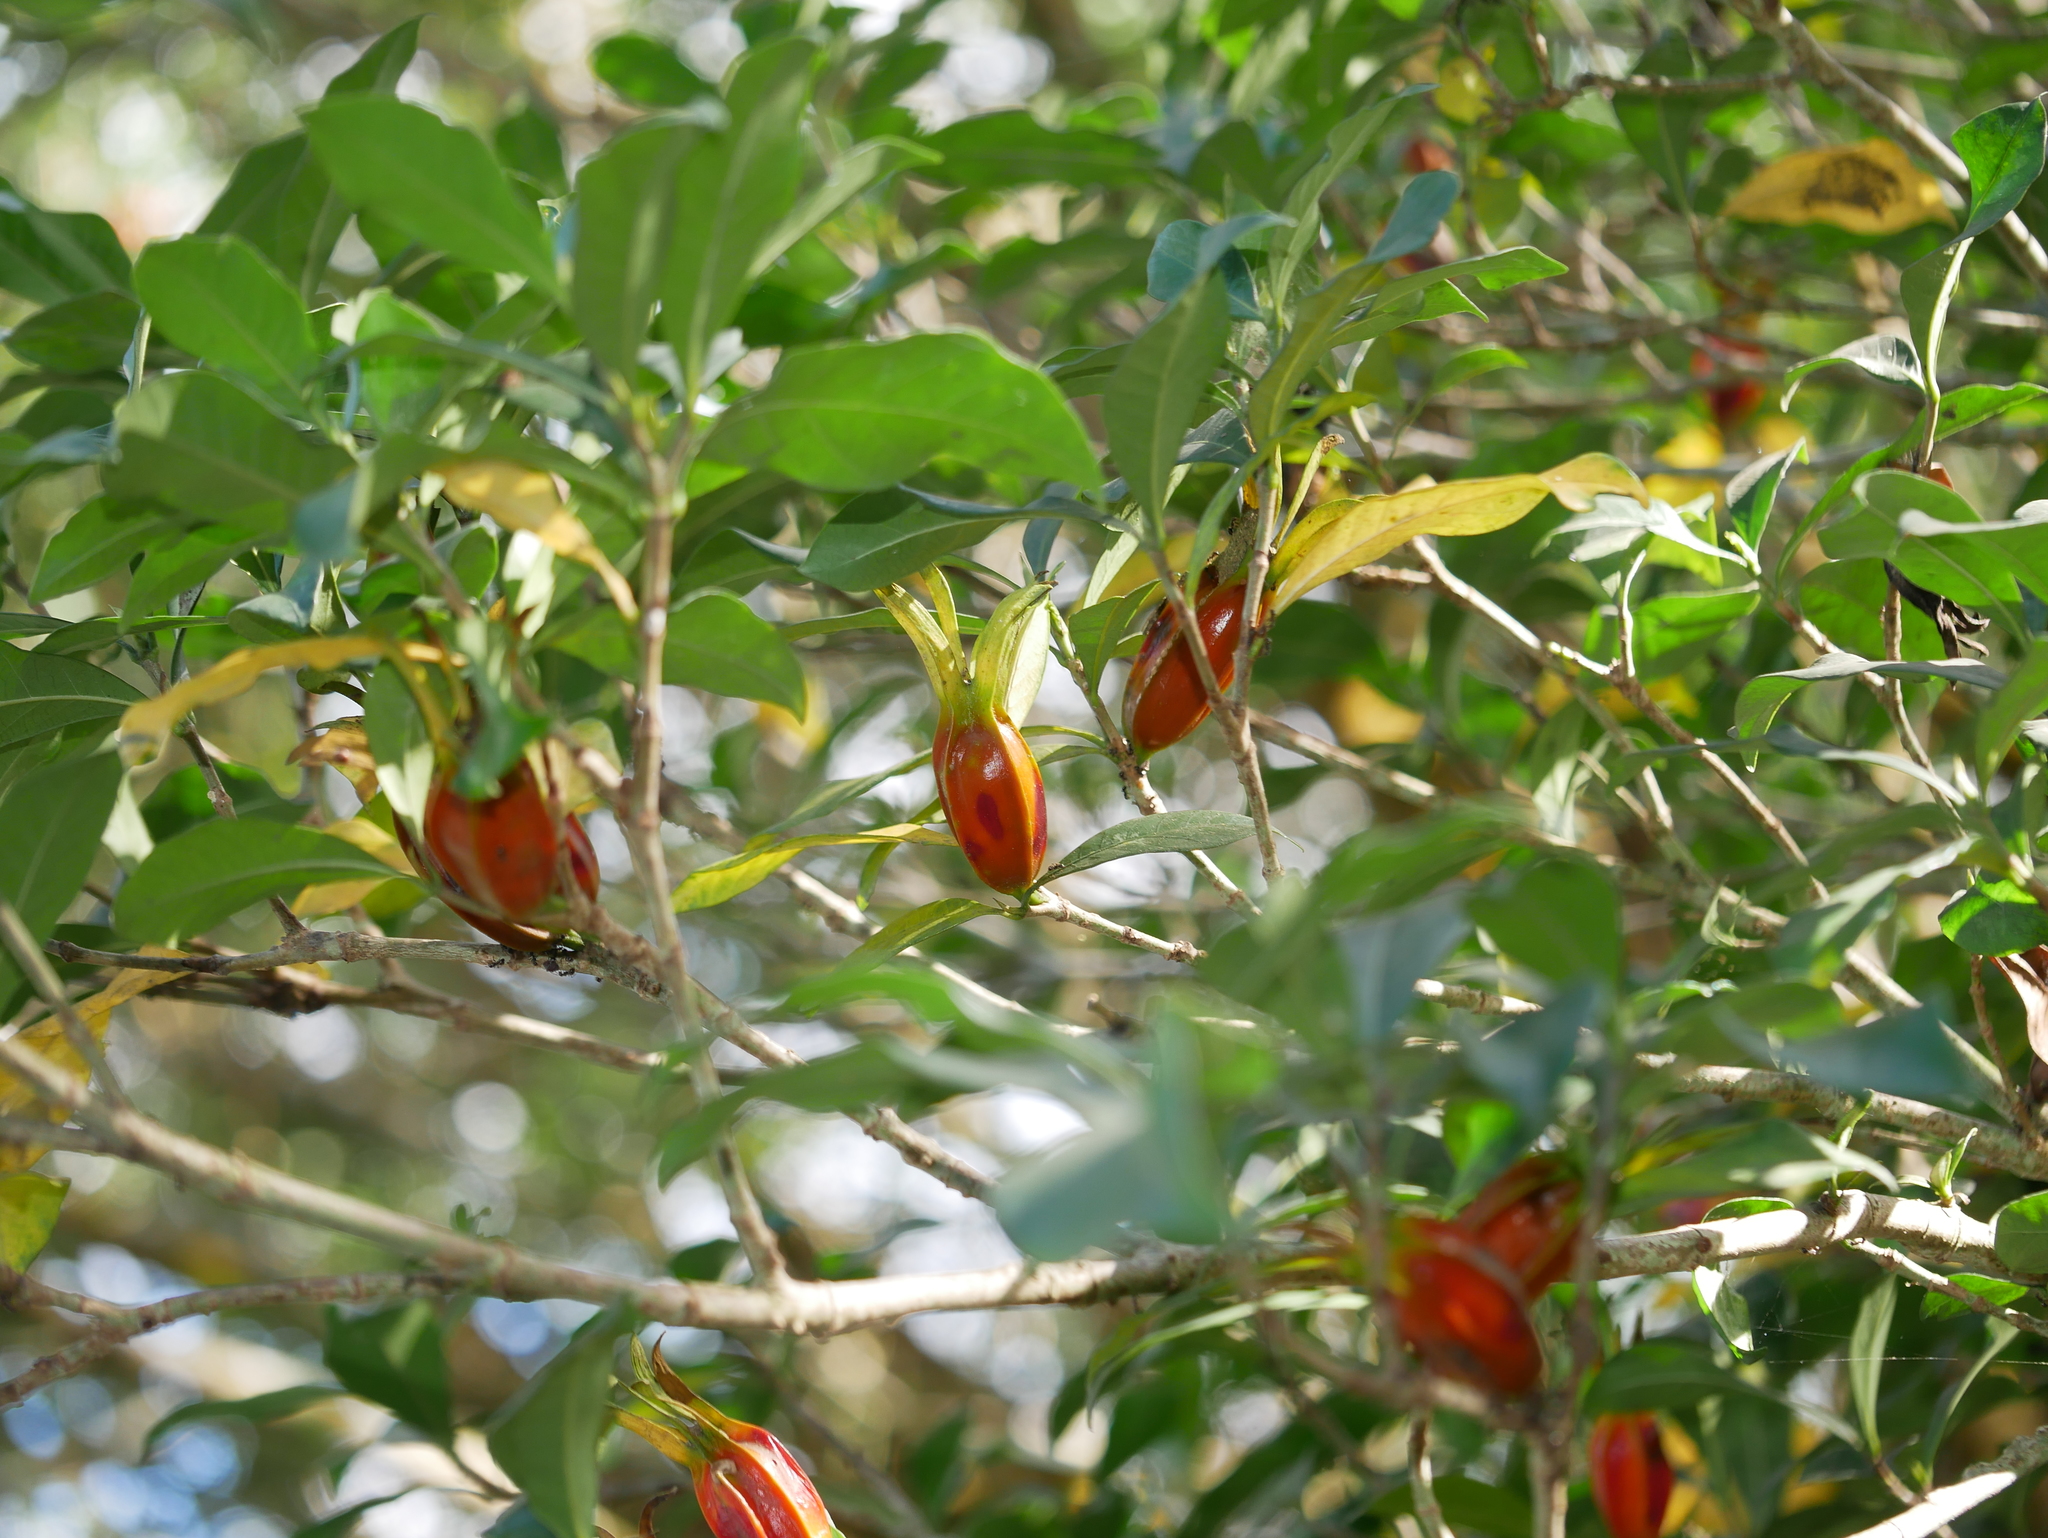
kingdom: Plantae
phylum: Tracheophyta
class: Magnoliopsida
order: Gentianales
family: Rubiaceae
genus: Gardenia
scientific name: Gardenia jasminoides
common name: Cape-jasmine
